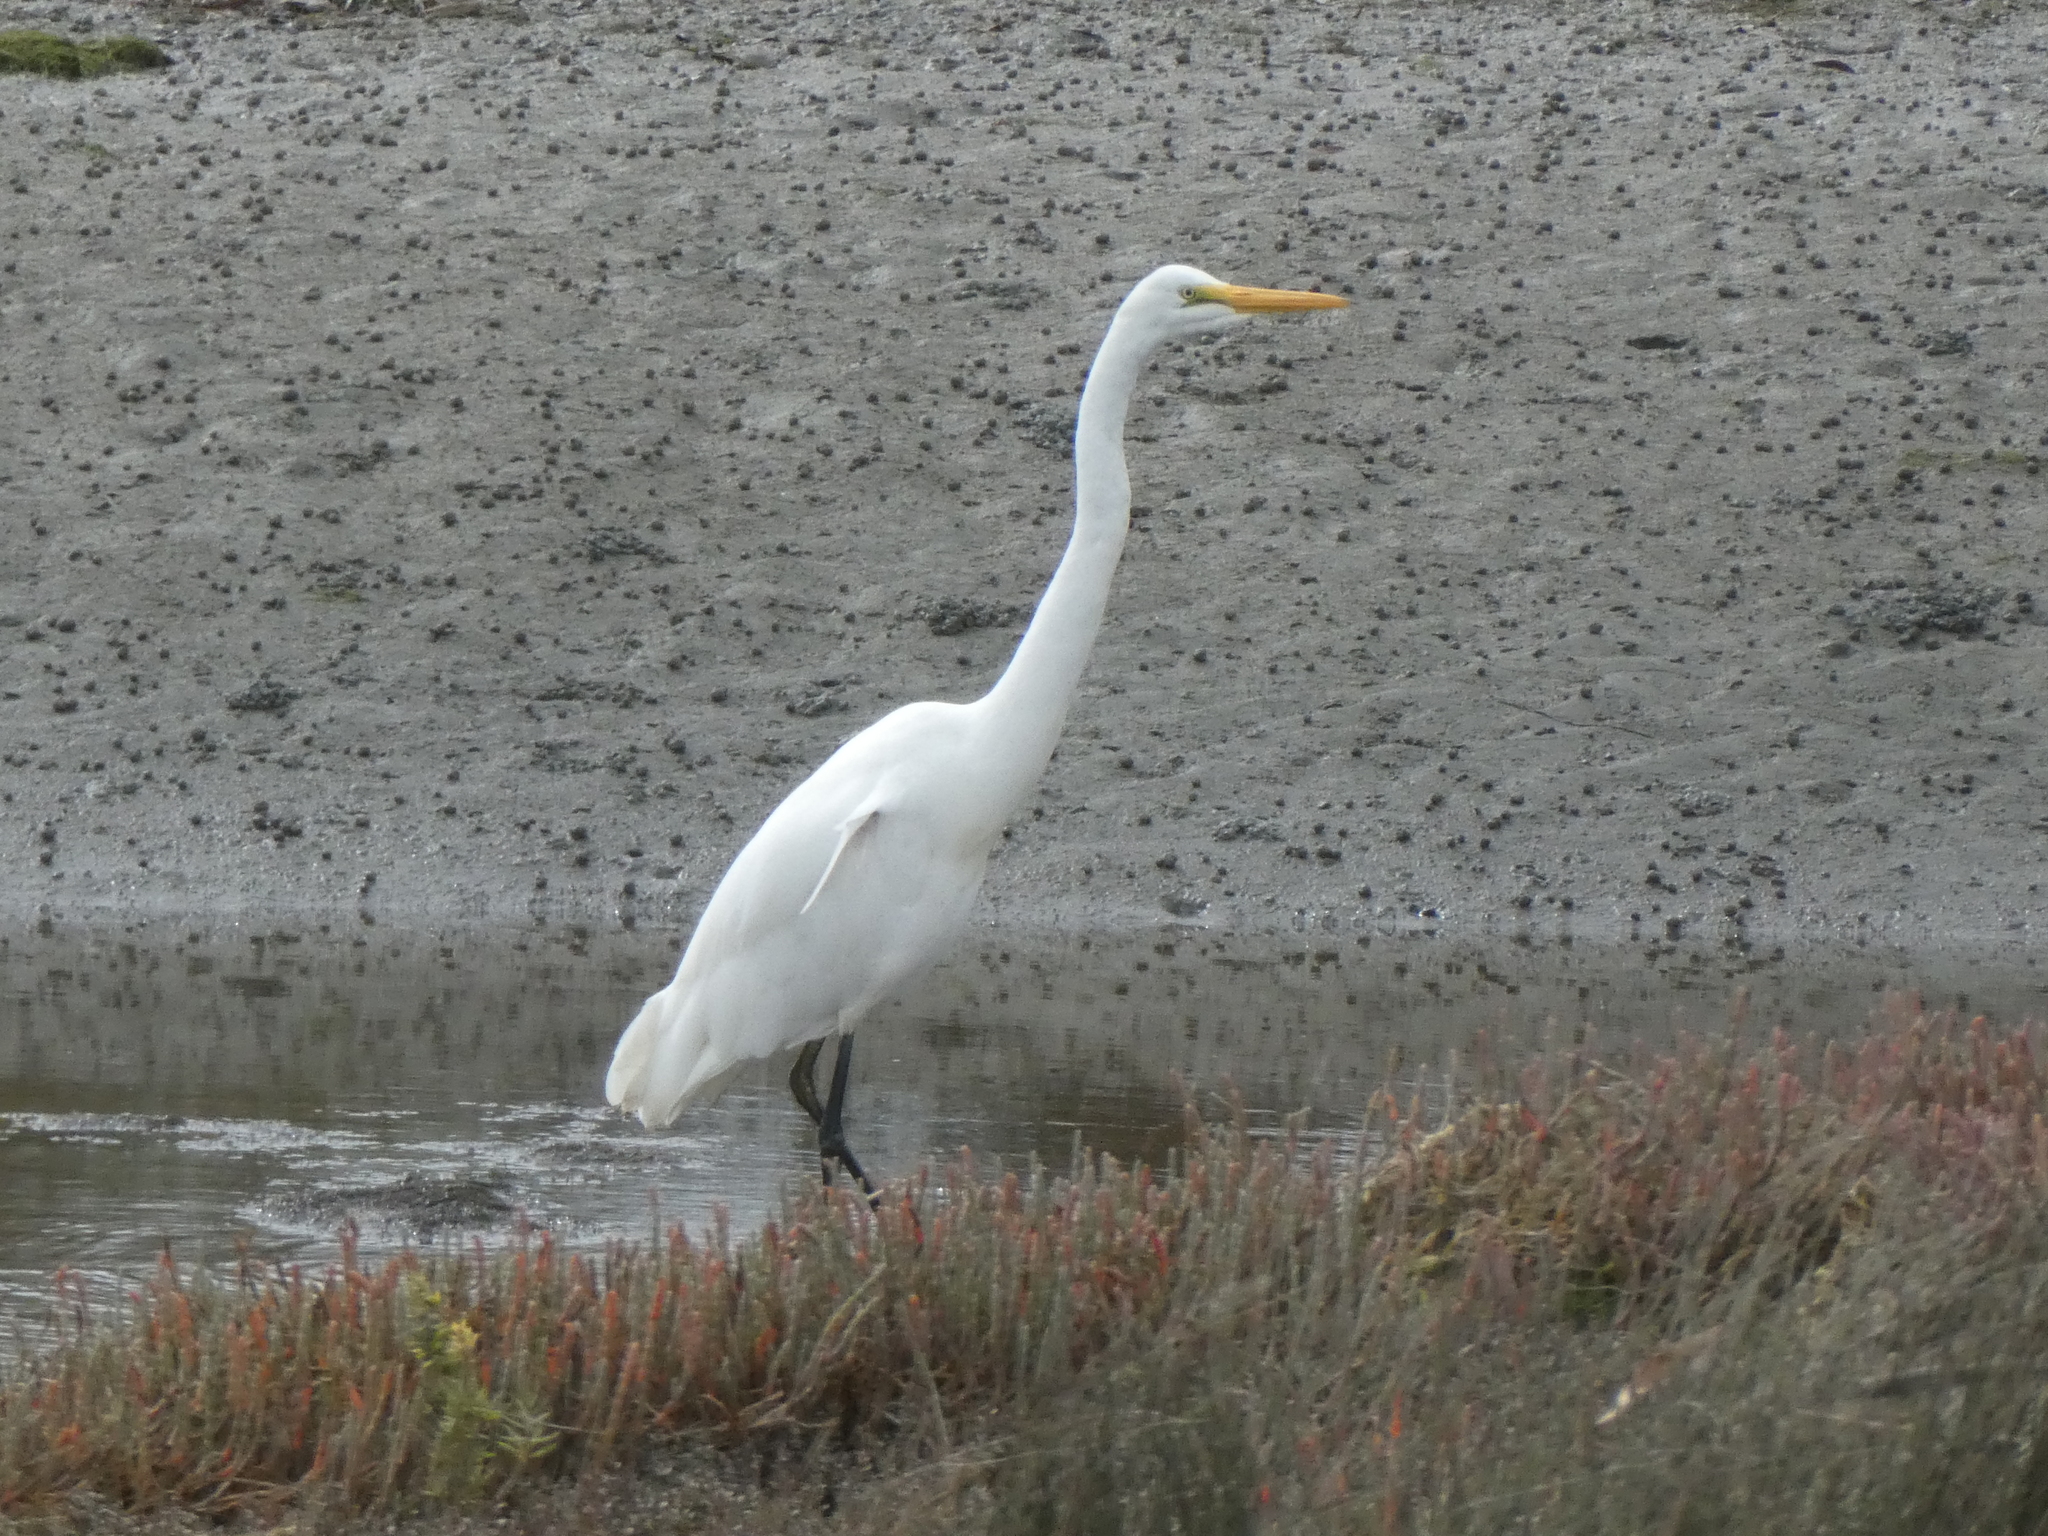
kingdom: Animalia
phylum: Chordata
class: Aves
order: Pelecaniformes
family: Ardeidae
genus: Ardea
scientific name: Ardea modesta
